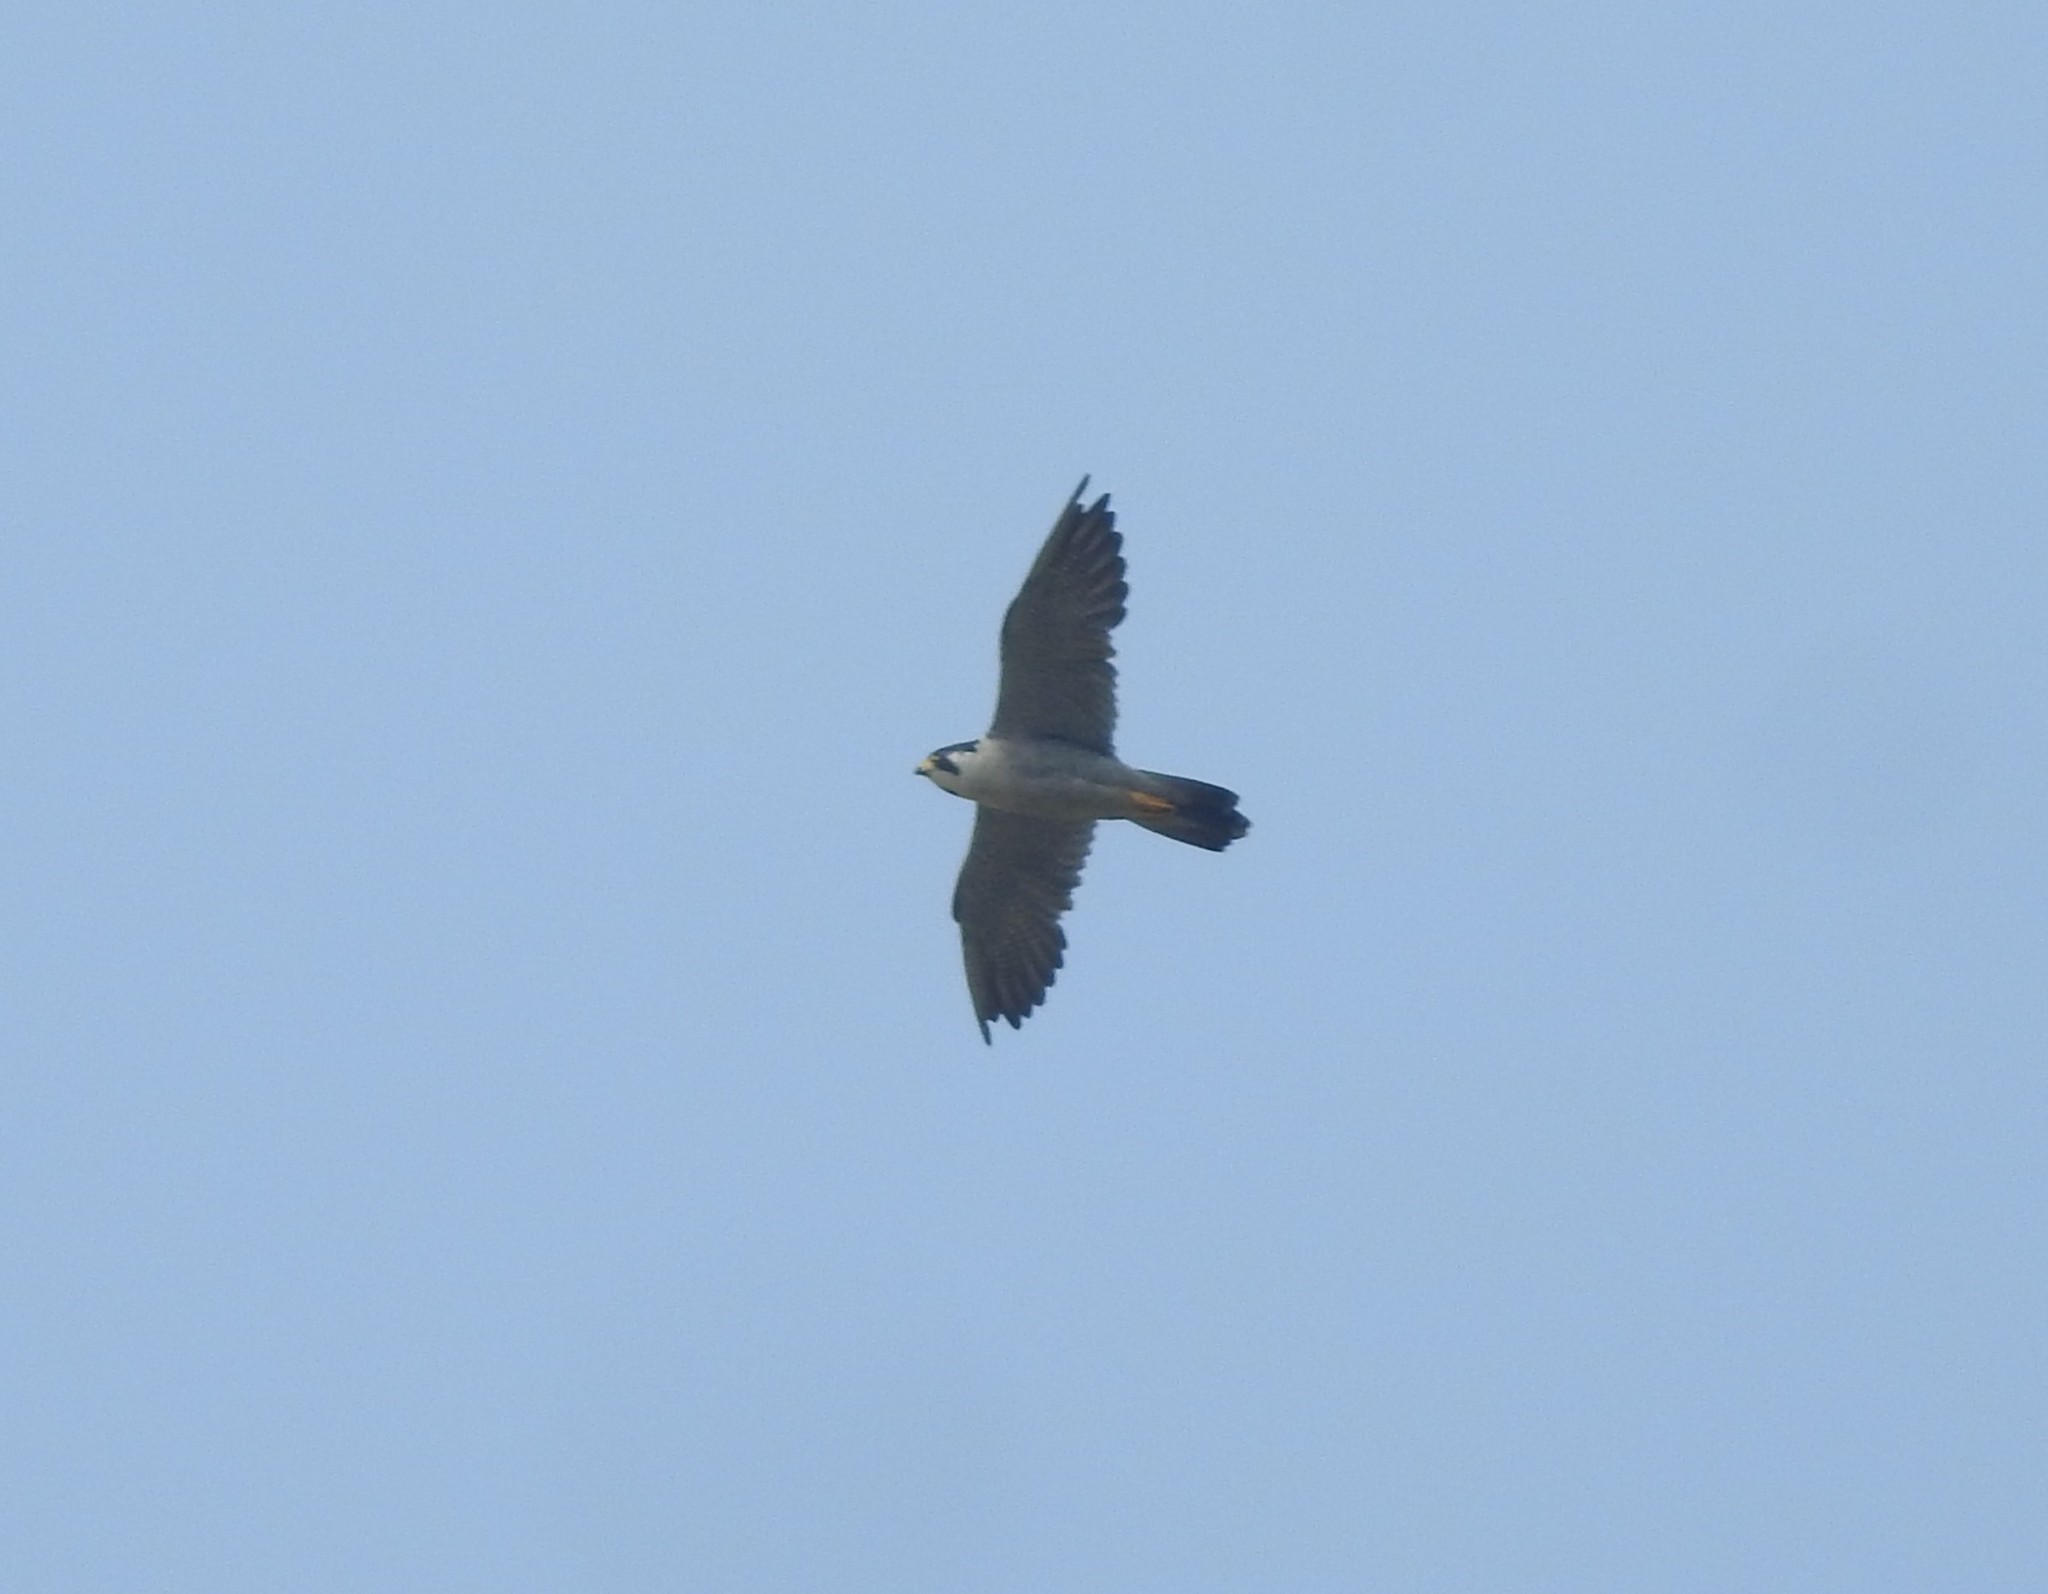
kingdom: Animalia
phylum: Chordata
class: Aves
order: Falconiformes
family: Falconidae
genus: Falco
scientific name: Falco peregrinus
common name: Peregrine falcon
